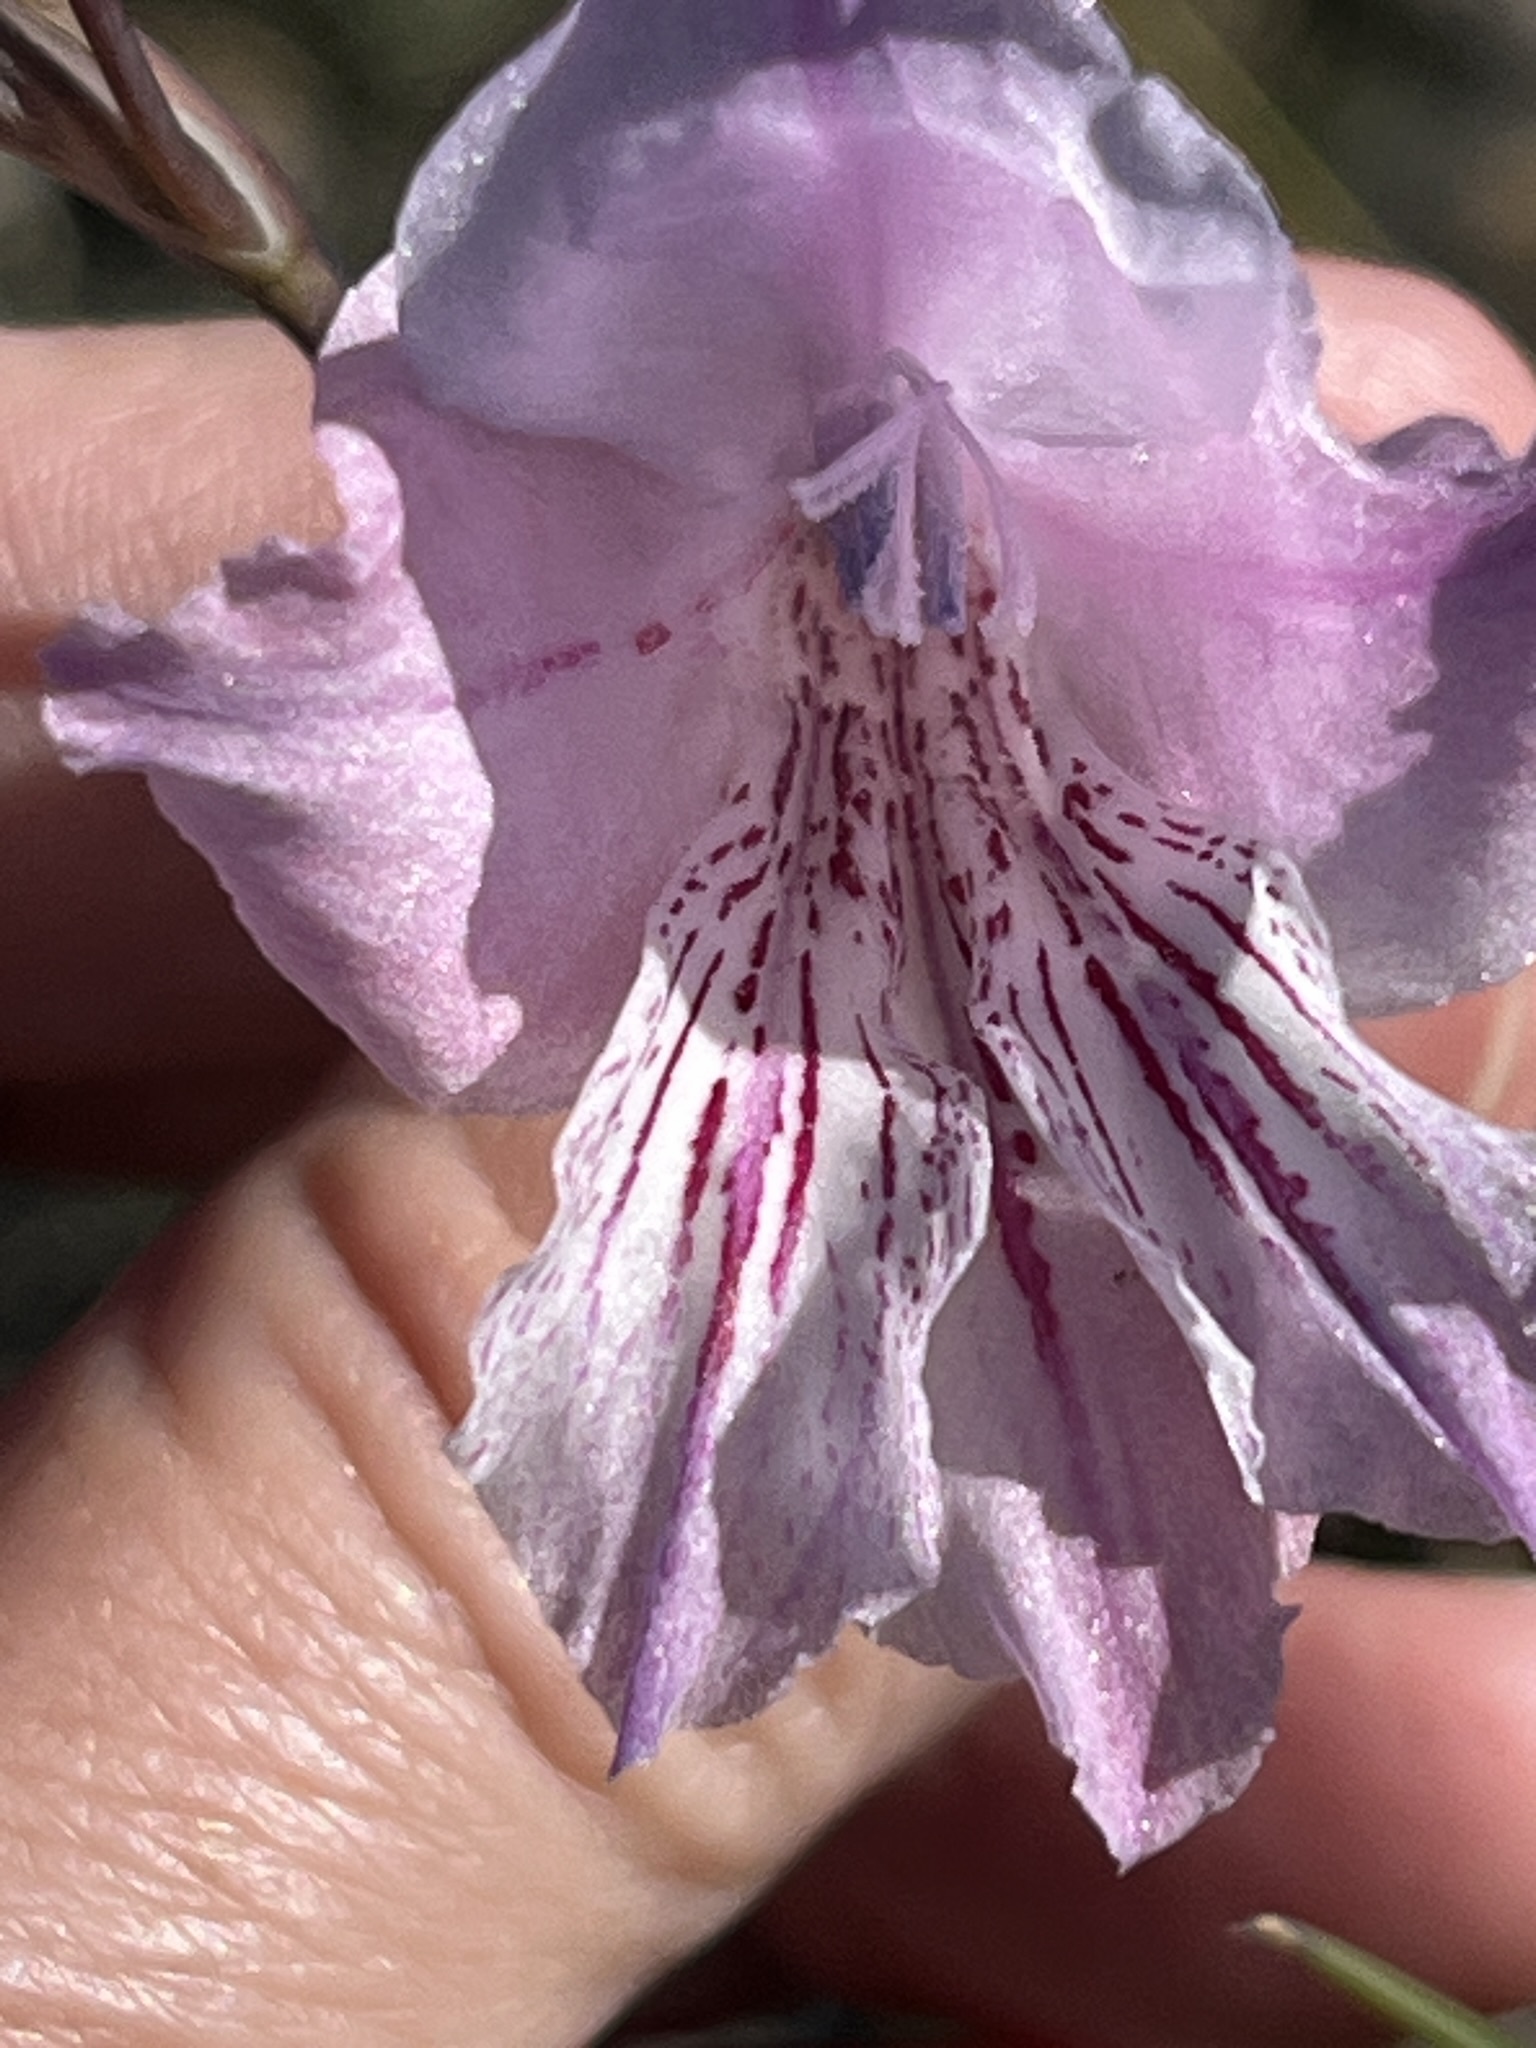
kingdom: Plantae
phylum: Tracheophyta
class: Liliopsida
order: Asparagales
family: Iridaceae
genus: Gladiolus
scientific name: Gladiolus hirsutus
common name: Small pink afrikaner
